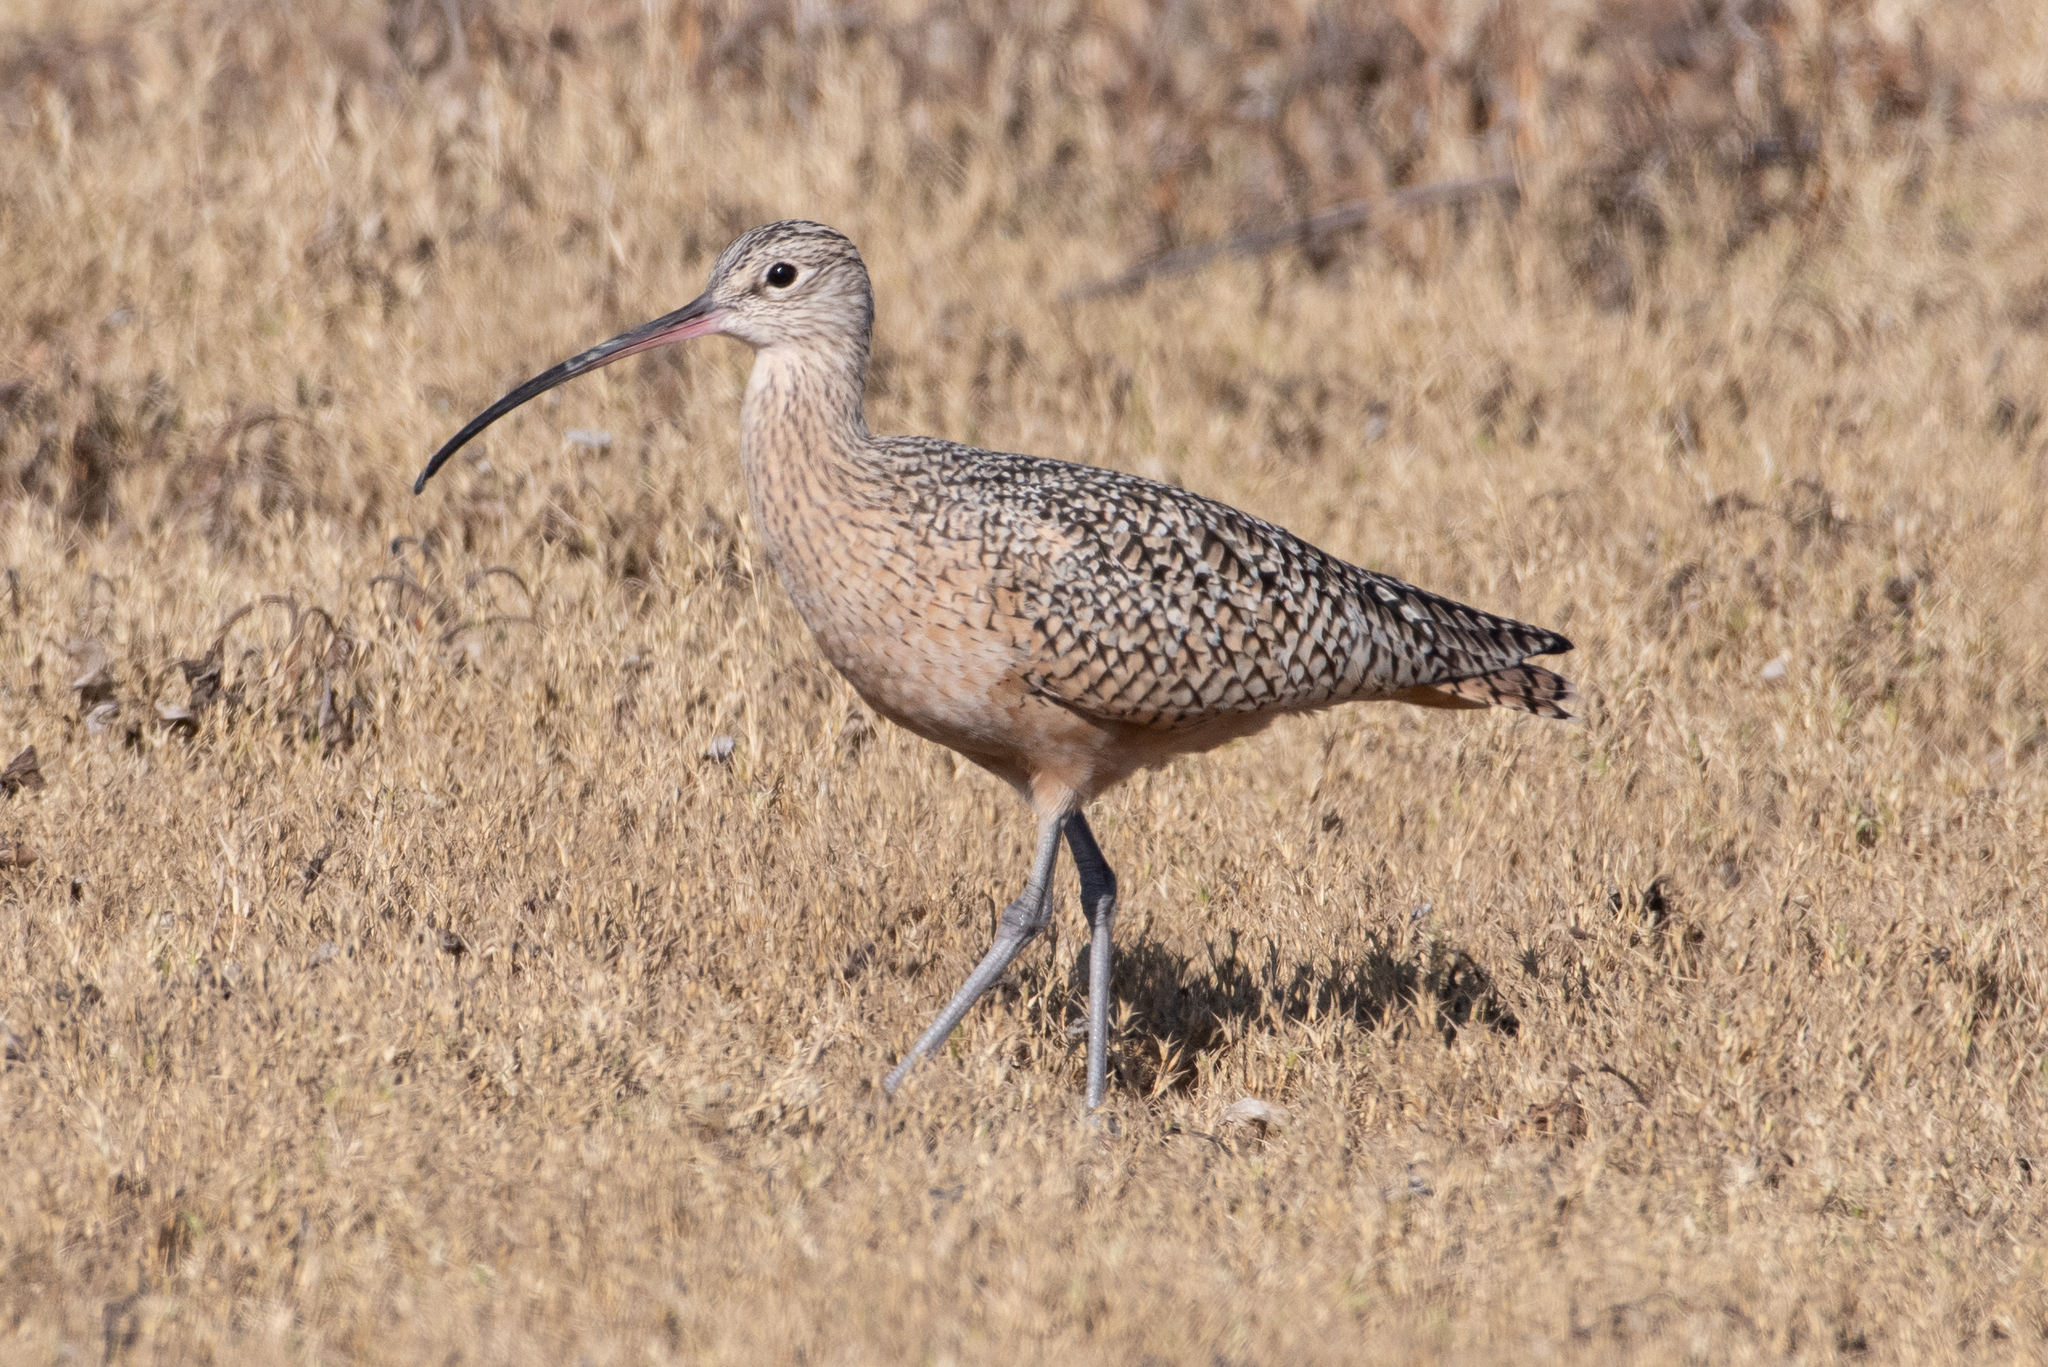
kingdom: Animalia
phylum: Chordata
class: Aves
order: Charadriiformes
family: Scolopacidae
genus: Numenius
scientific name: Numenius americanus
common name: Long-billed curlew
